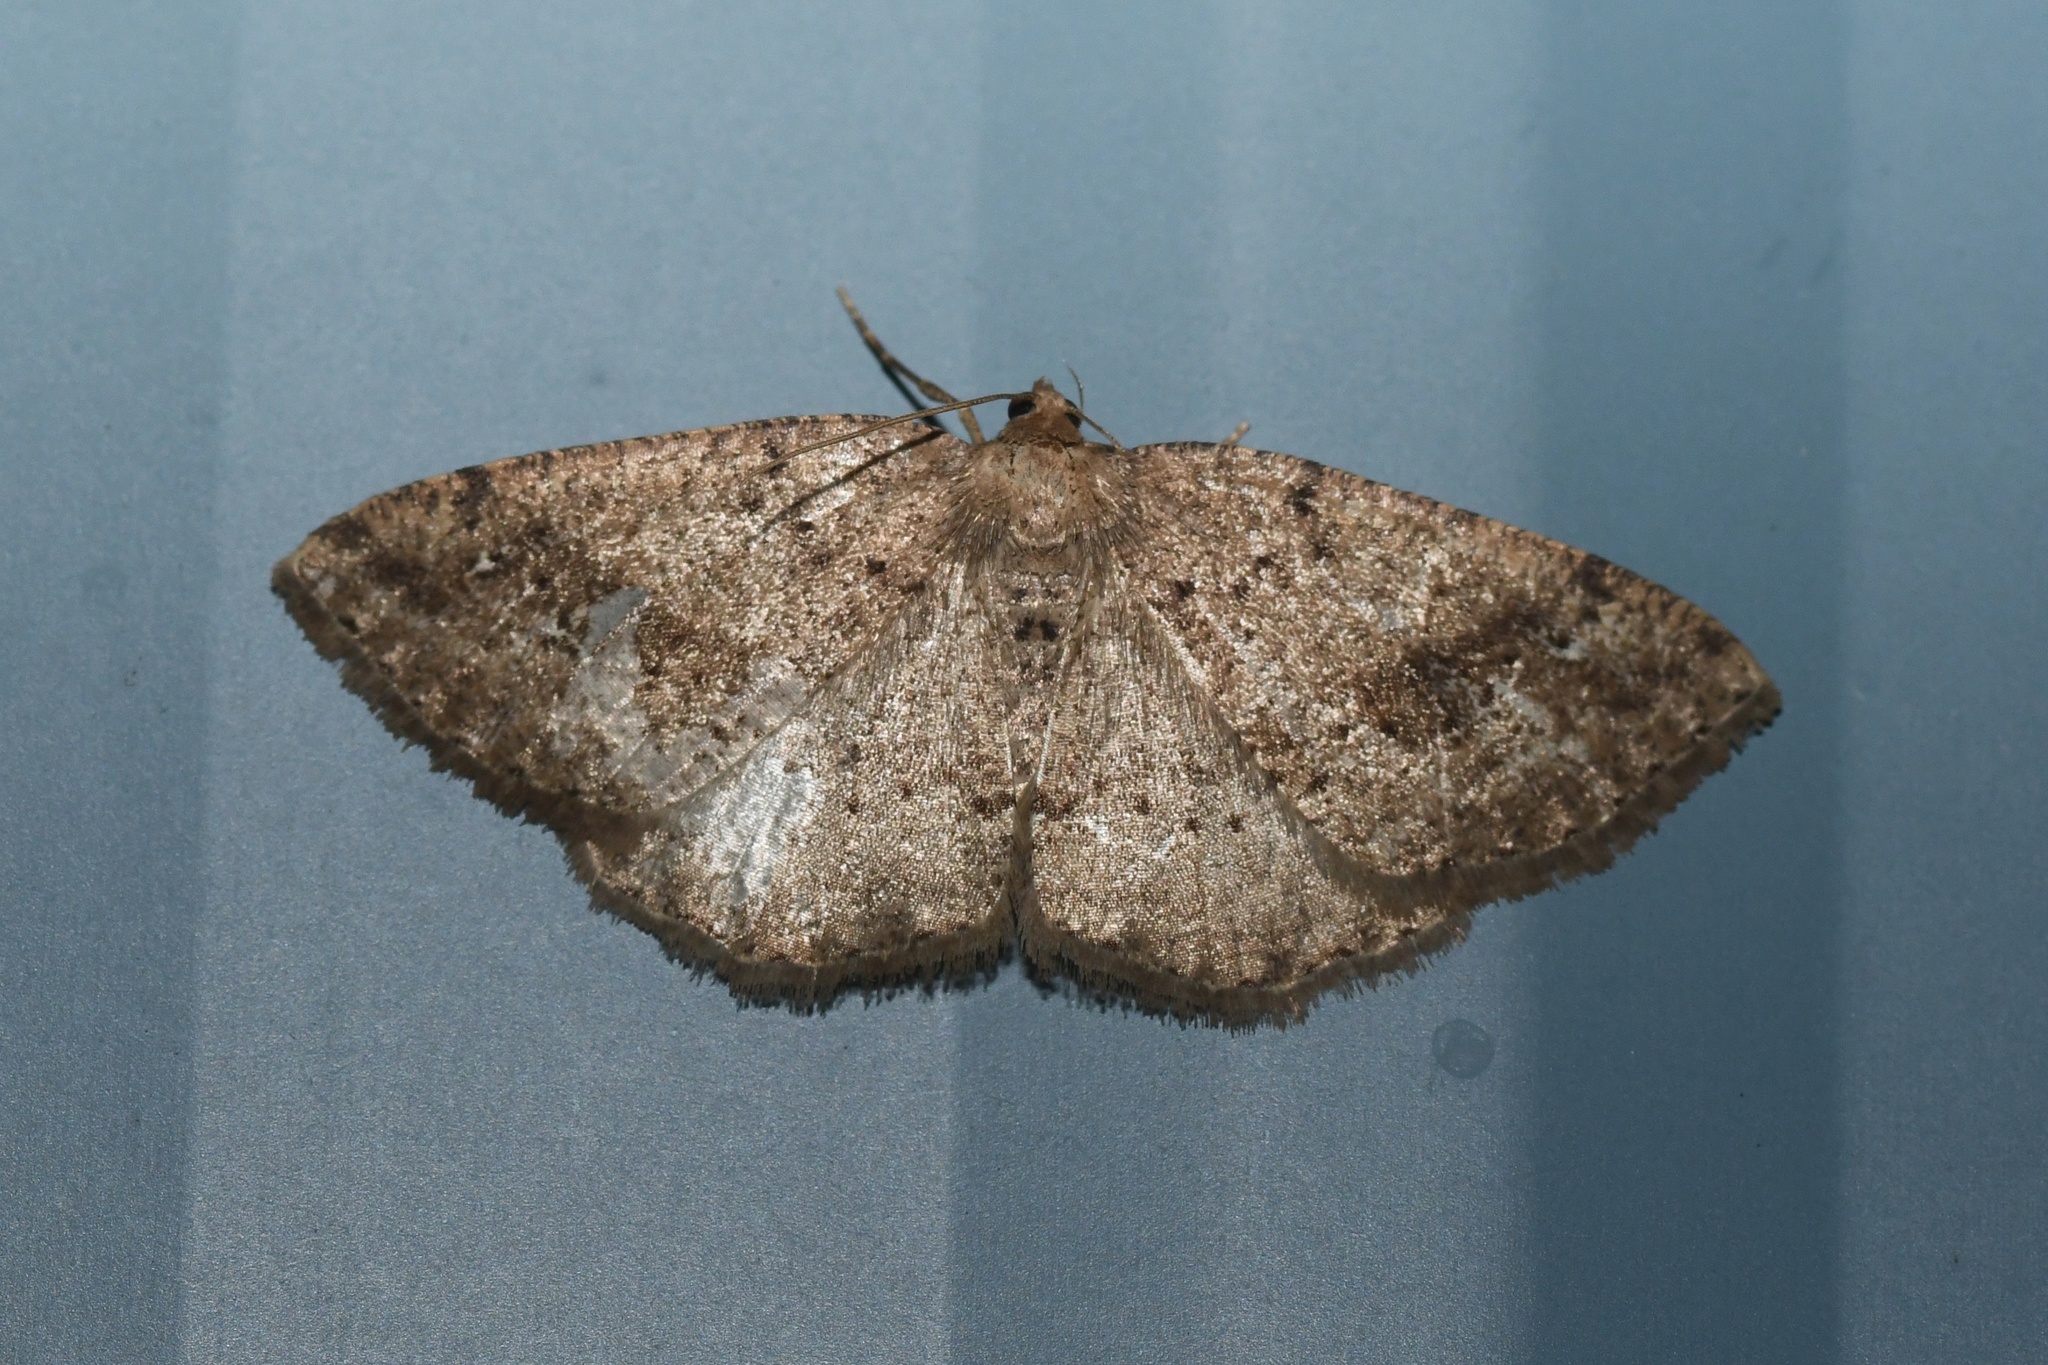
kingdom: Animalia
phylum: Arthropoda
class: Insecta
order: Lepidoptera
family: Geometridae
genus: Homochlodes
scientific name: Homochlodes fritillaria
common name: Pale homochlodes
